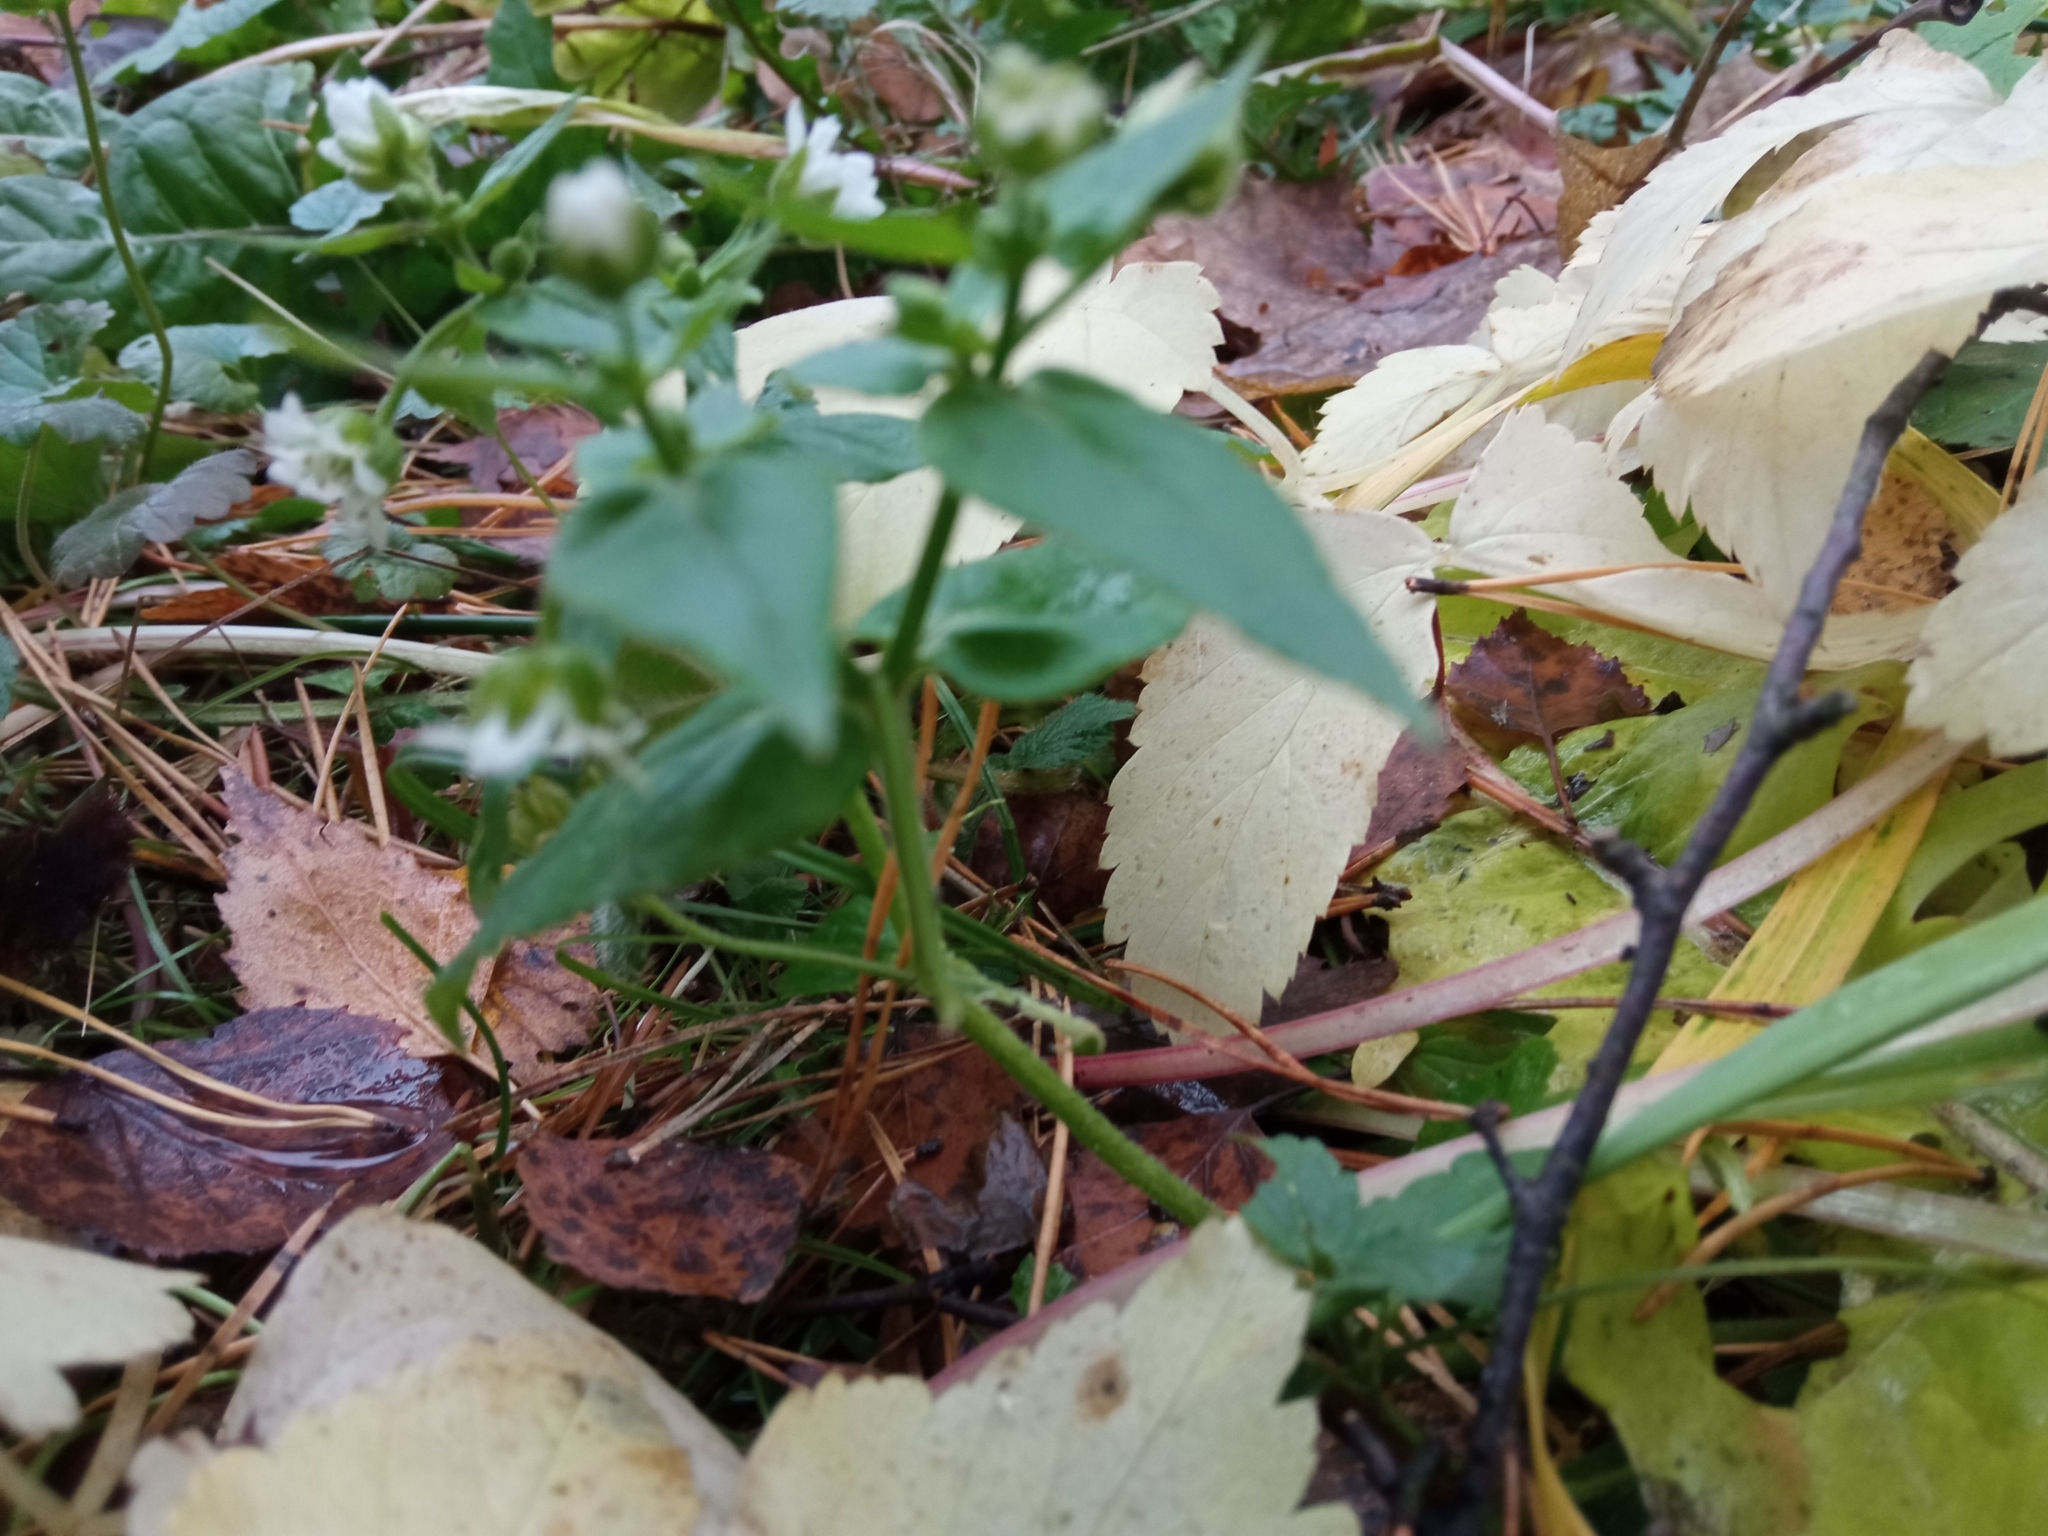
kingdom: Plantae
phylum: Tracheophyta
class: Magnoliopsida
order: Caryophyllales
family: Caryophyllaceae
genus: Stellaria
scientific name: Stellaria aquatica
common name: Water chickweed
